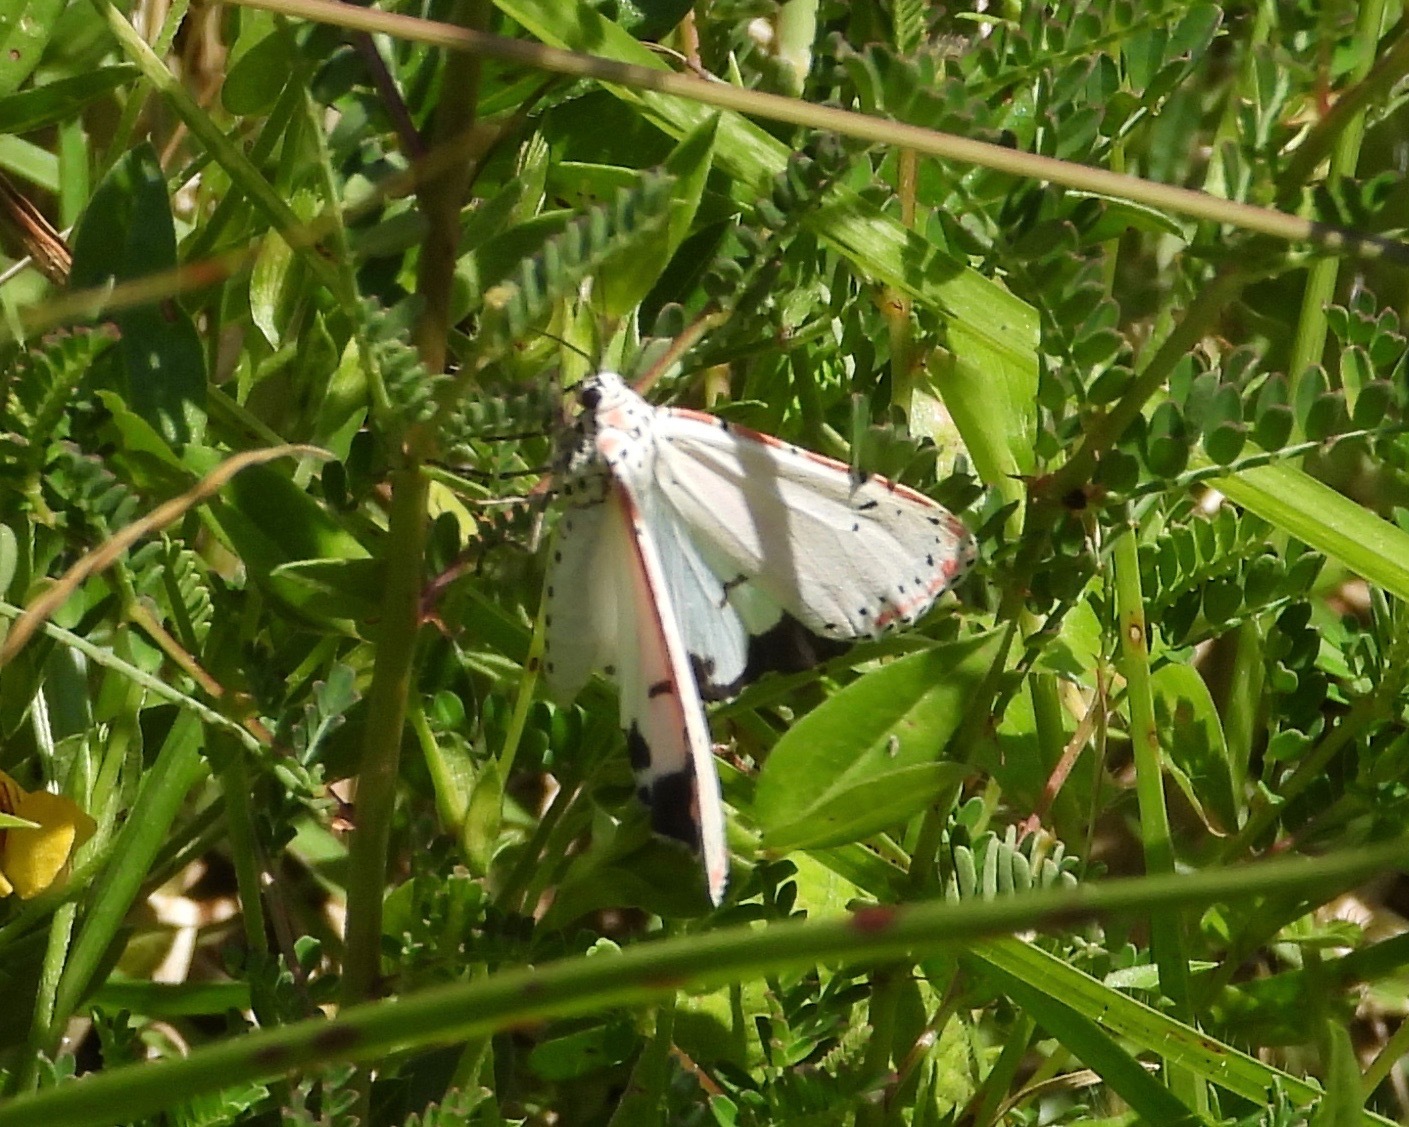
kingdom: Animalia
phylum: Arthropoda
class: Insecta
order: Lepidoptera
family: Erebidae
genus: Utetheisa
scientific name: Utetheisa ornatrix
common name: Beautiful utetheisa
